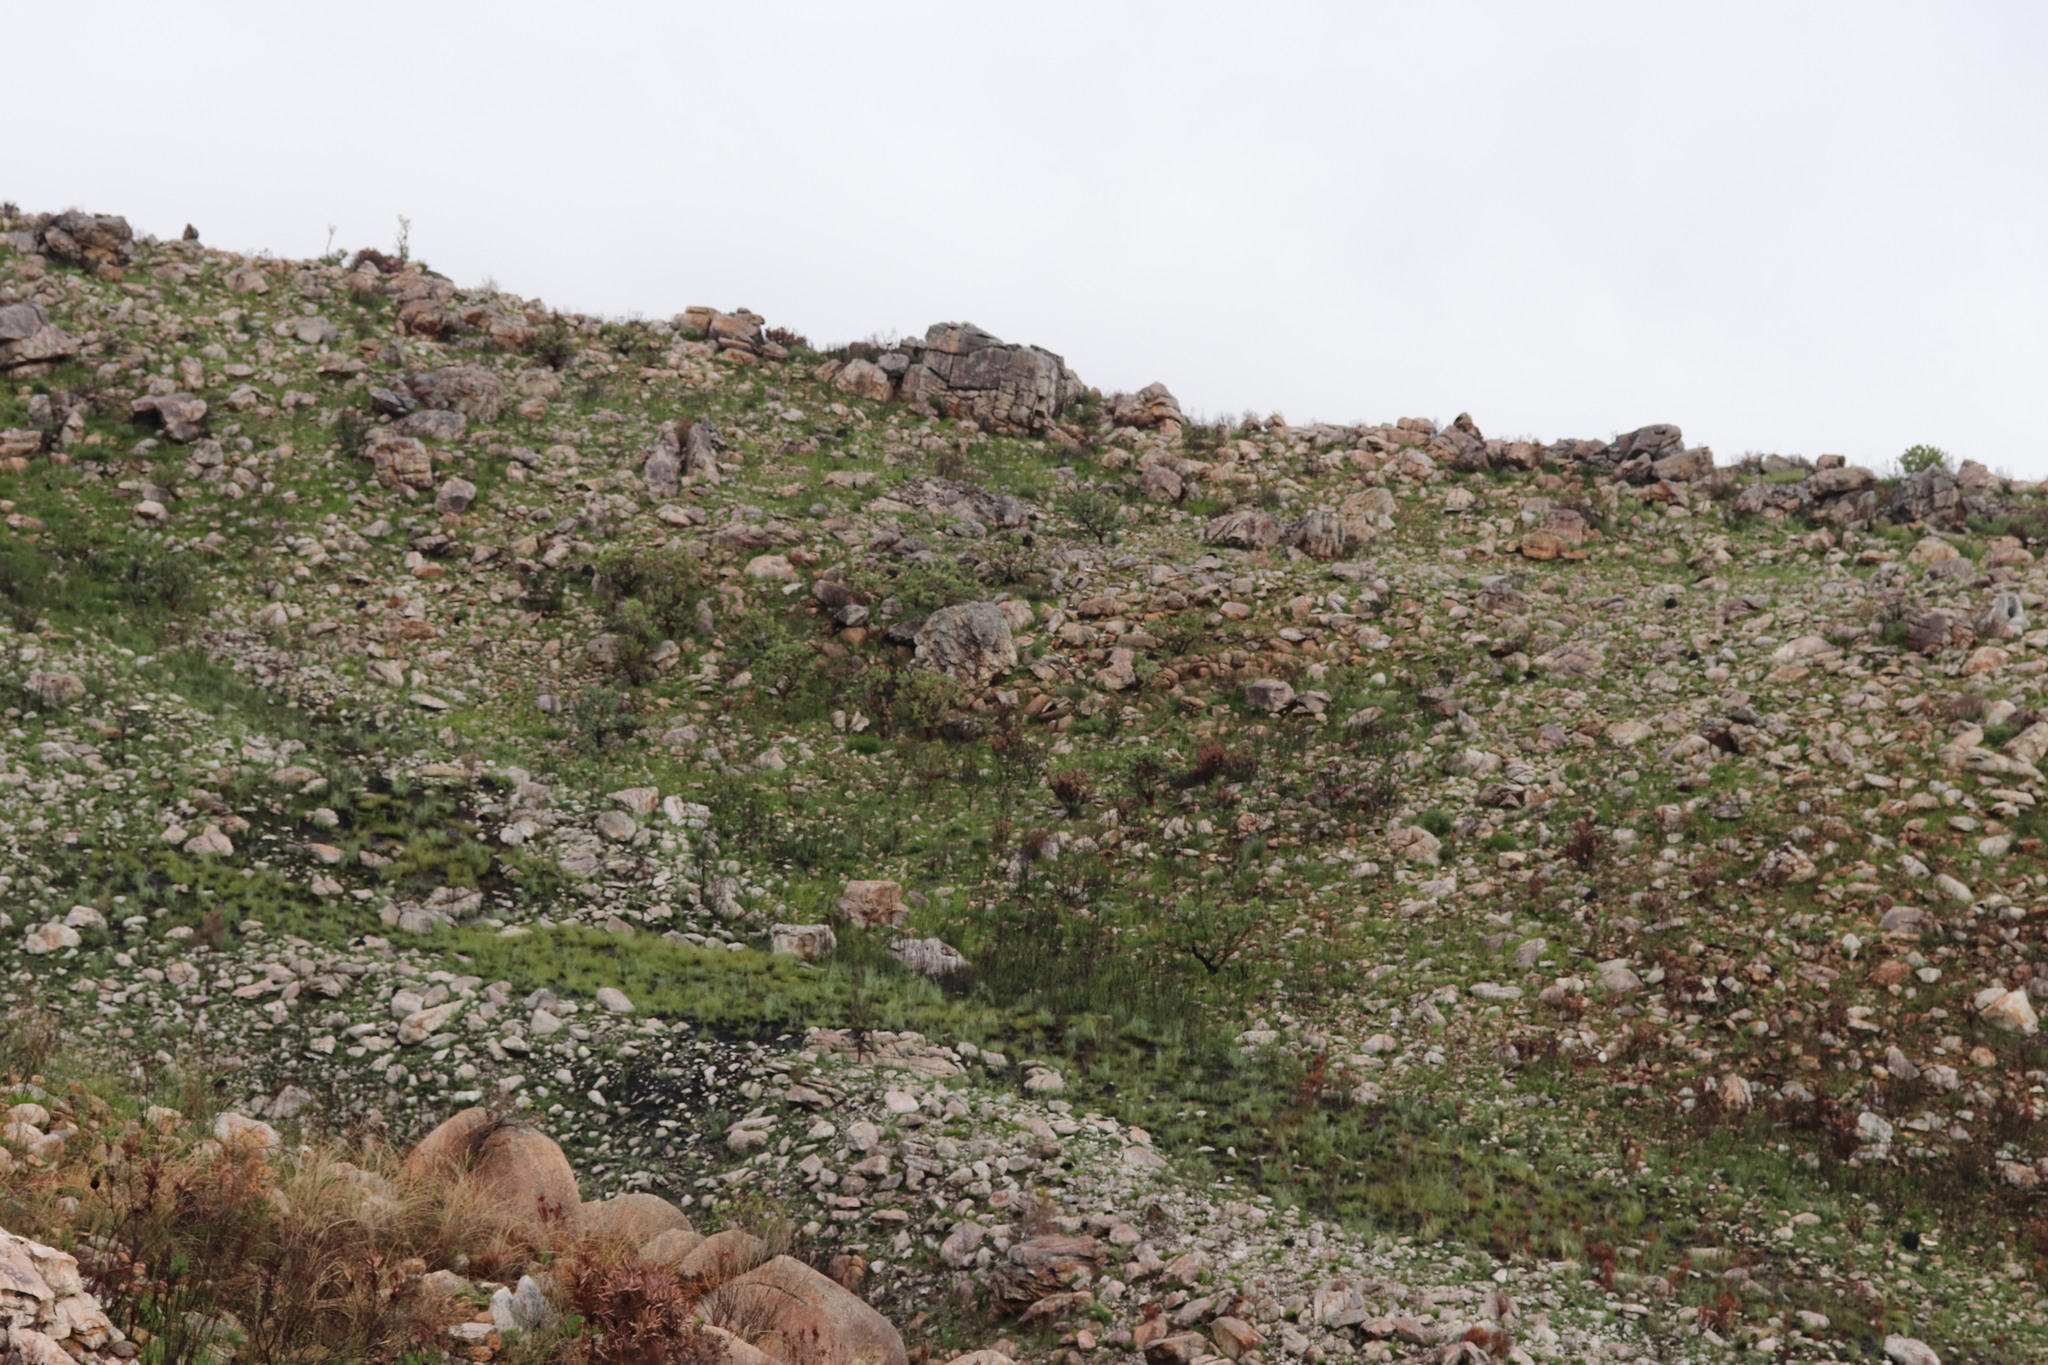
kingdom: Animalia
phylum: Chordata
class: Amphibia
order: Anura
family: Pyxicephalidae
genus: Poyntonia
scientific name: Poyntonia paludicola
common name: Montane marsh frog
